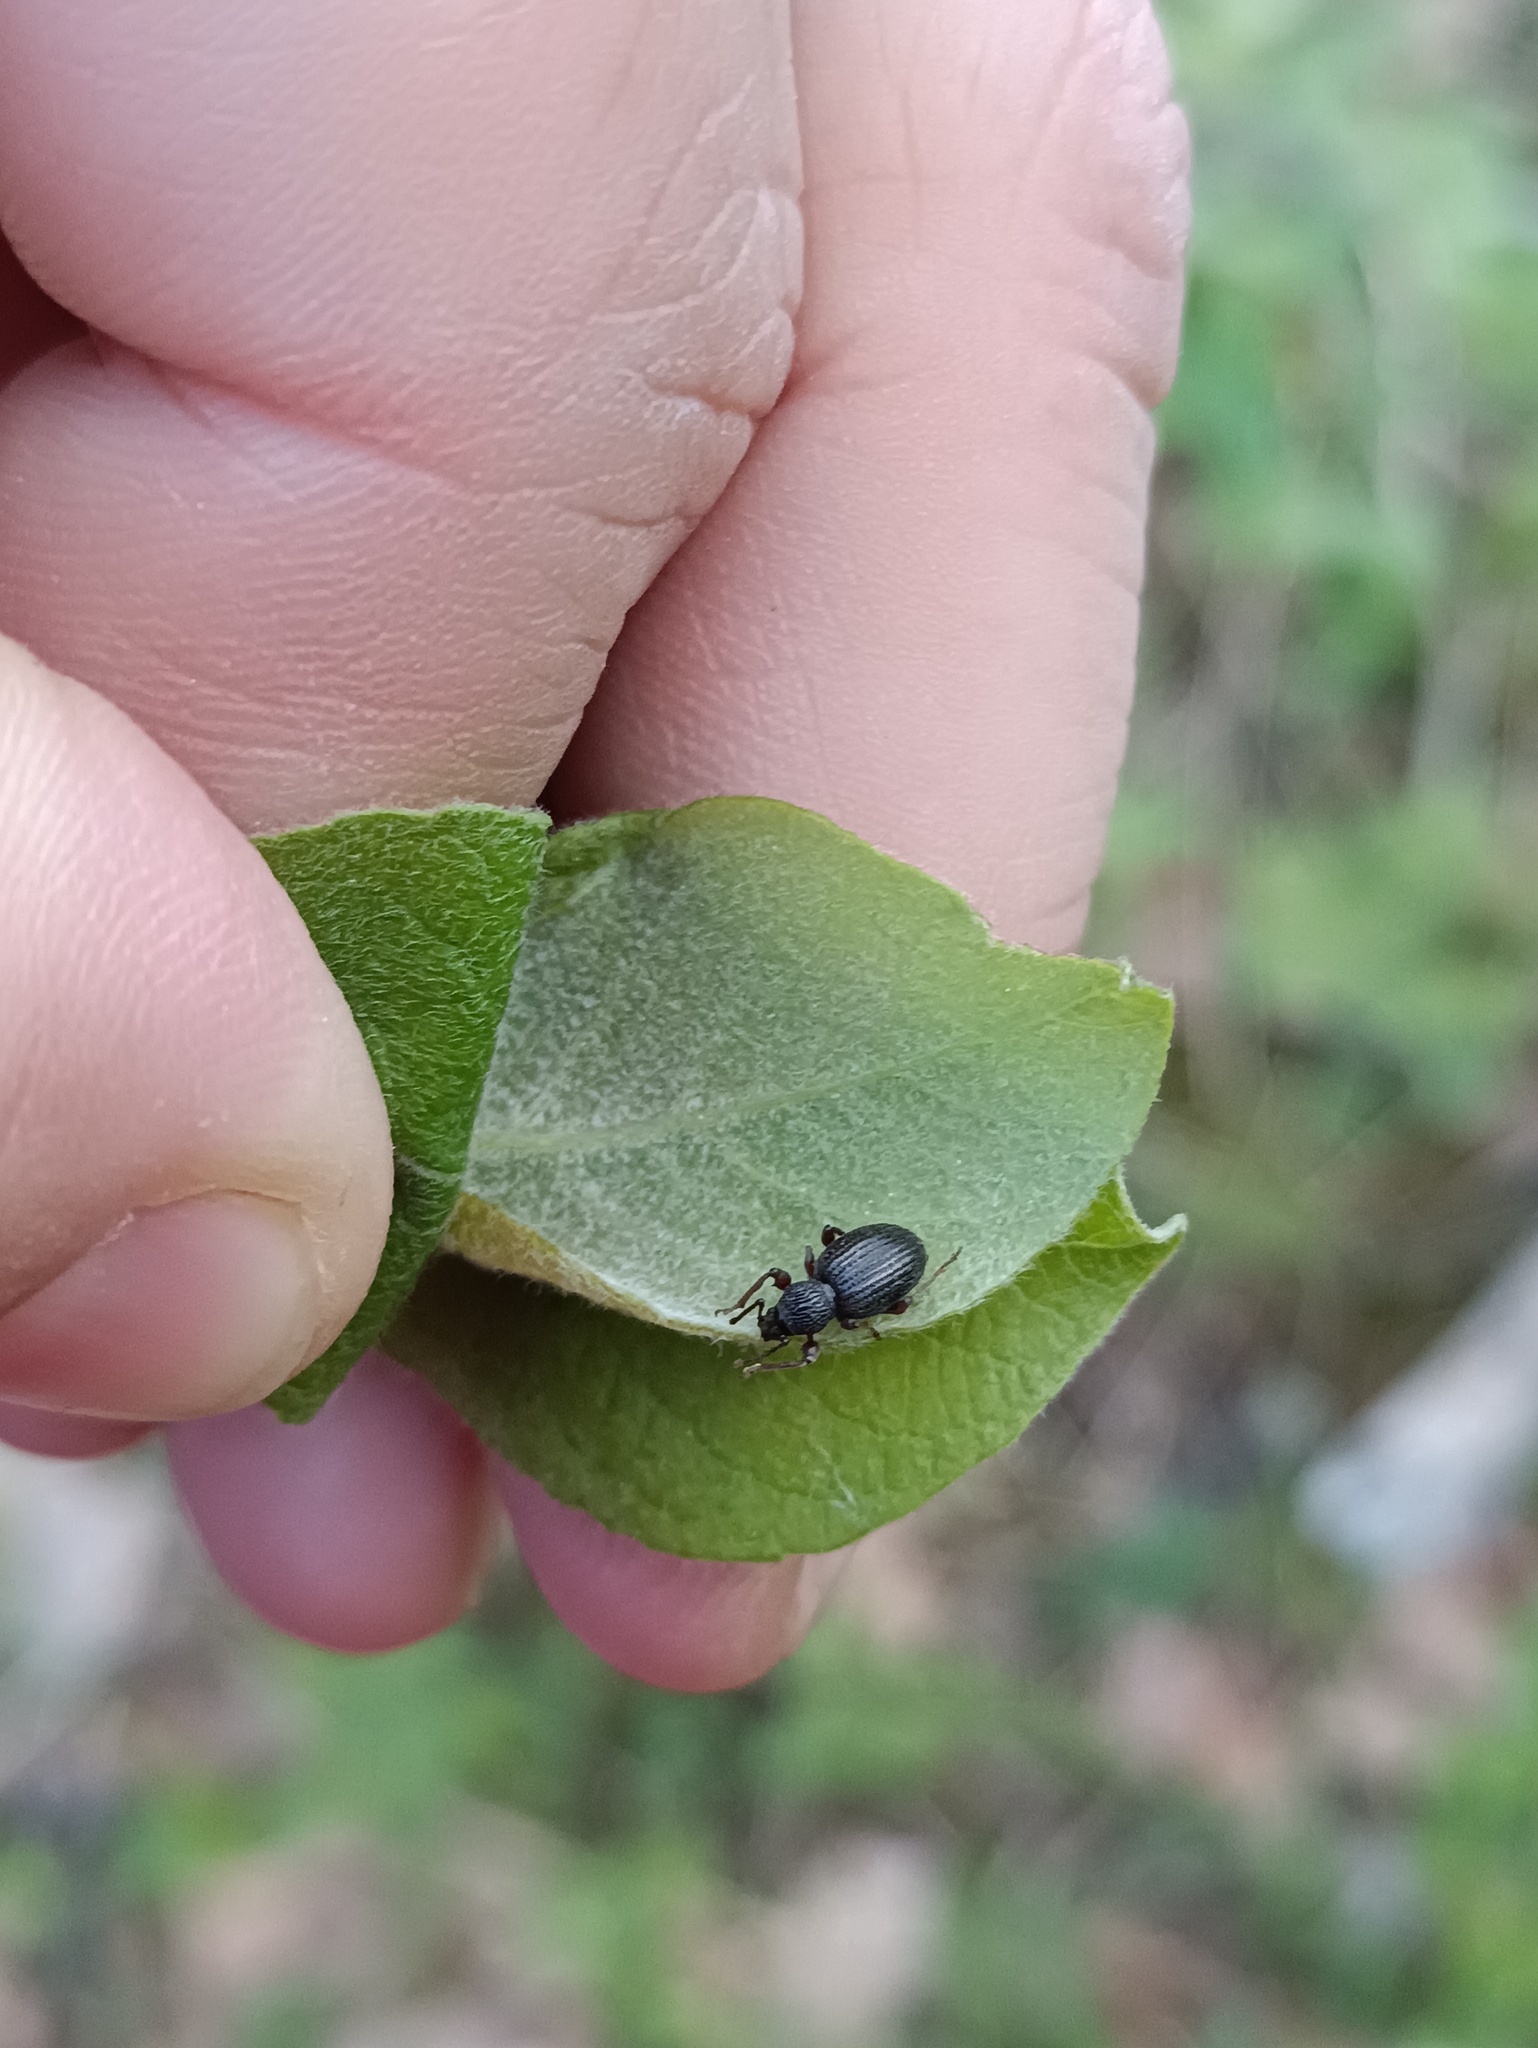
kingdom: Animalia
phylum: Arthropoda
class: Insecta
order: Coleoptera
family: Curculionidae
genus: Otiorhynchus
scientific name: Otiorhynchus ovatus
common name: Strawberry root weevil
